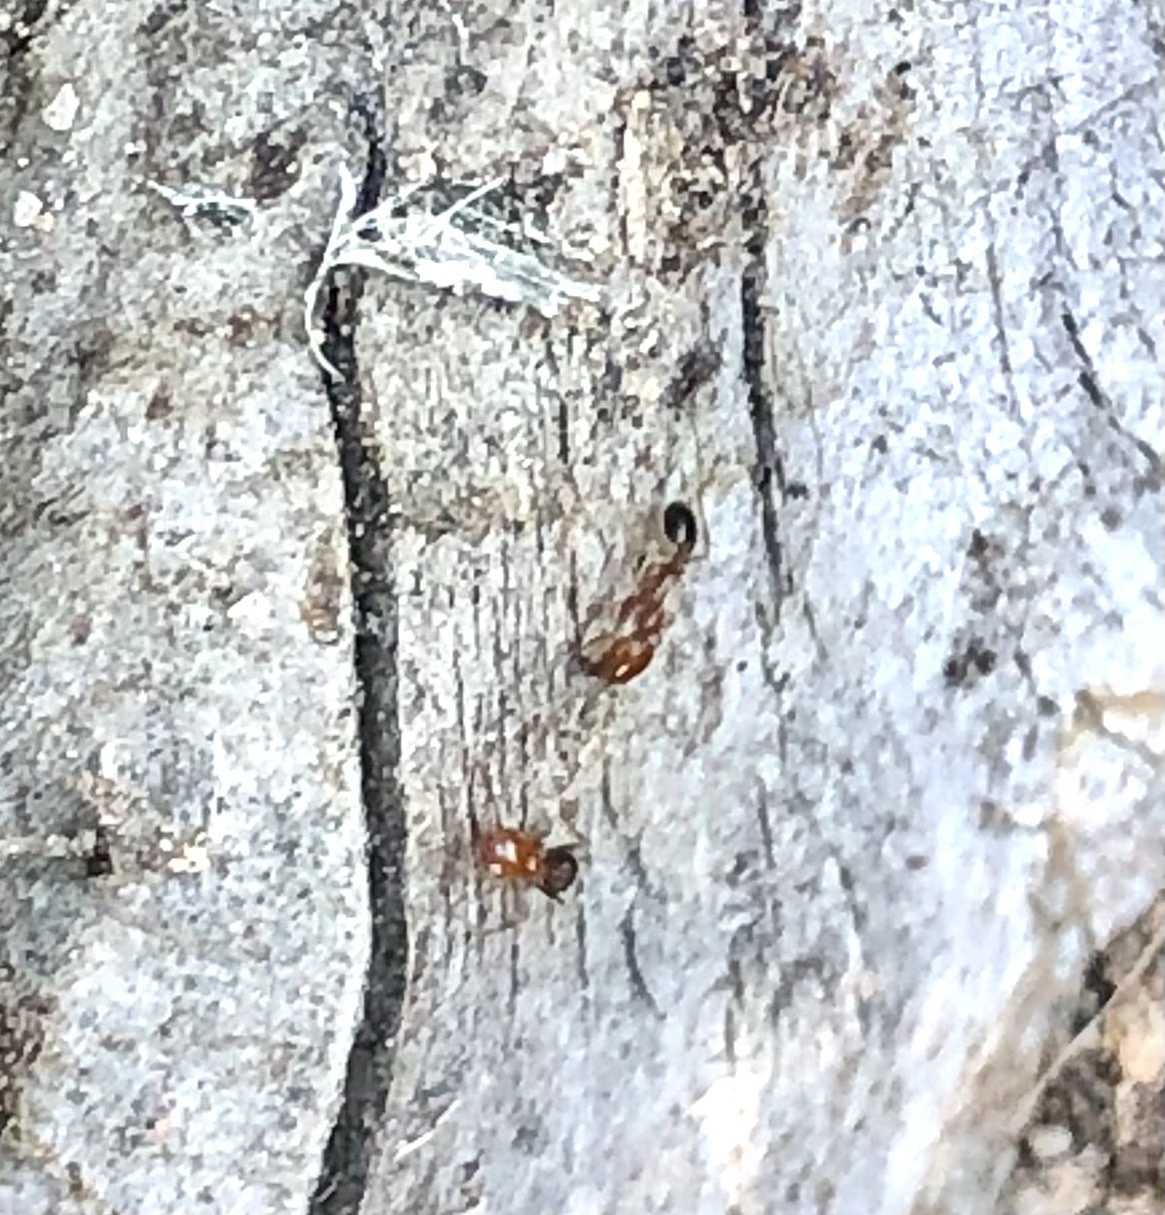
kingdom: Animalia
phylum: Arthropoda
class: Insecta
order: Hymenoptera
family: Formicidae
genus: Solenopsis
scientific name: Solenopsis xyloni
